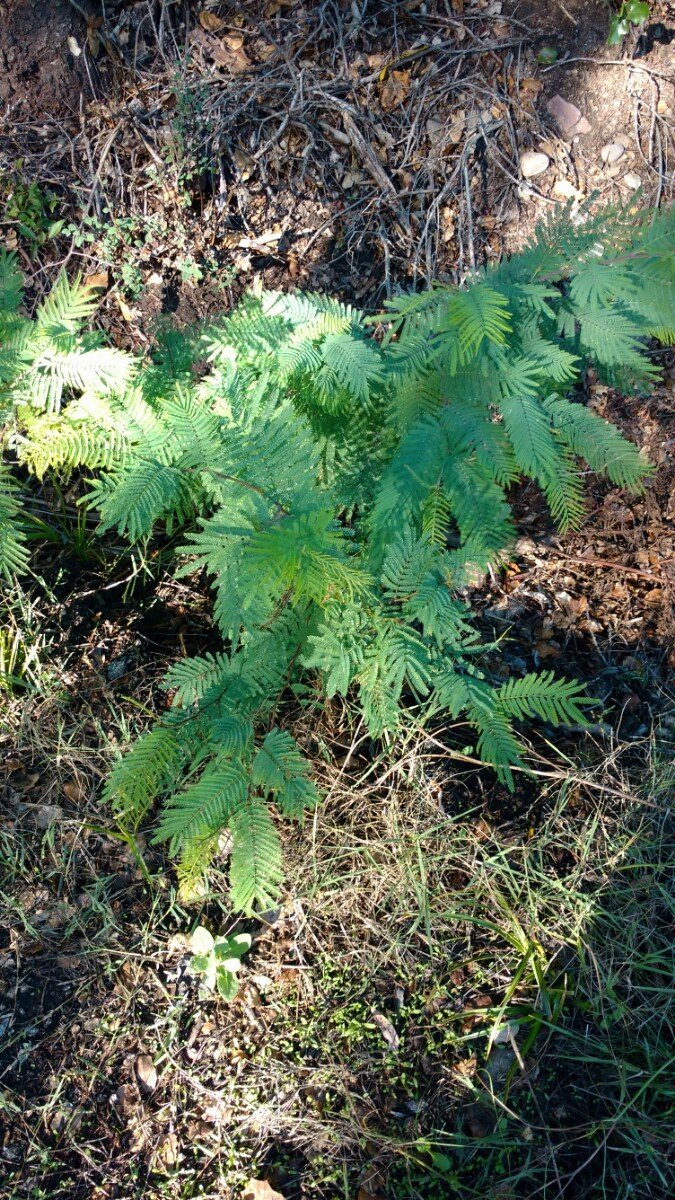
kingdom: Plantae
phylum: Tracheophyta
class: Magnoliopsida
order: Fabales
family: Fabaceae
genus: Acacia
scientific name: Acacia dealbata
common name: Silver wattle
